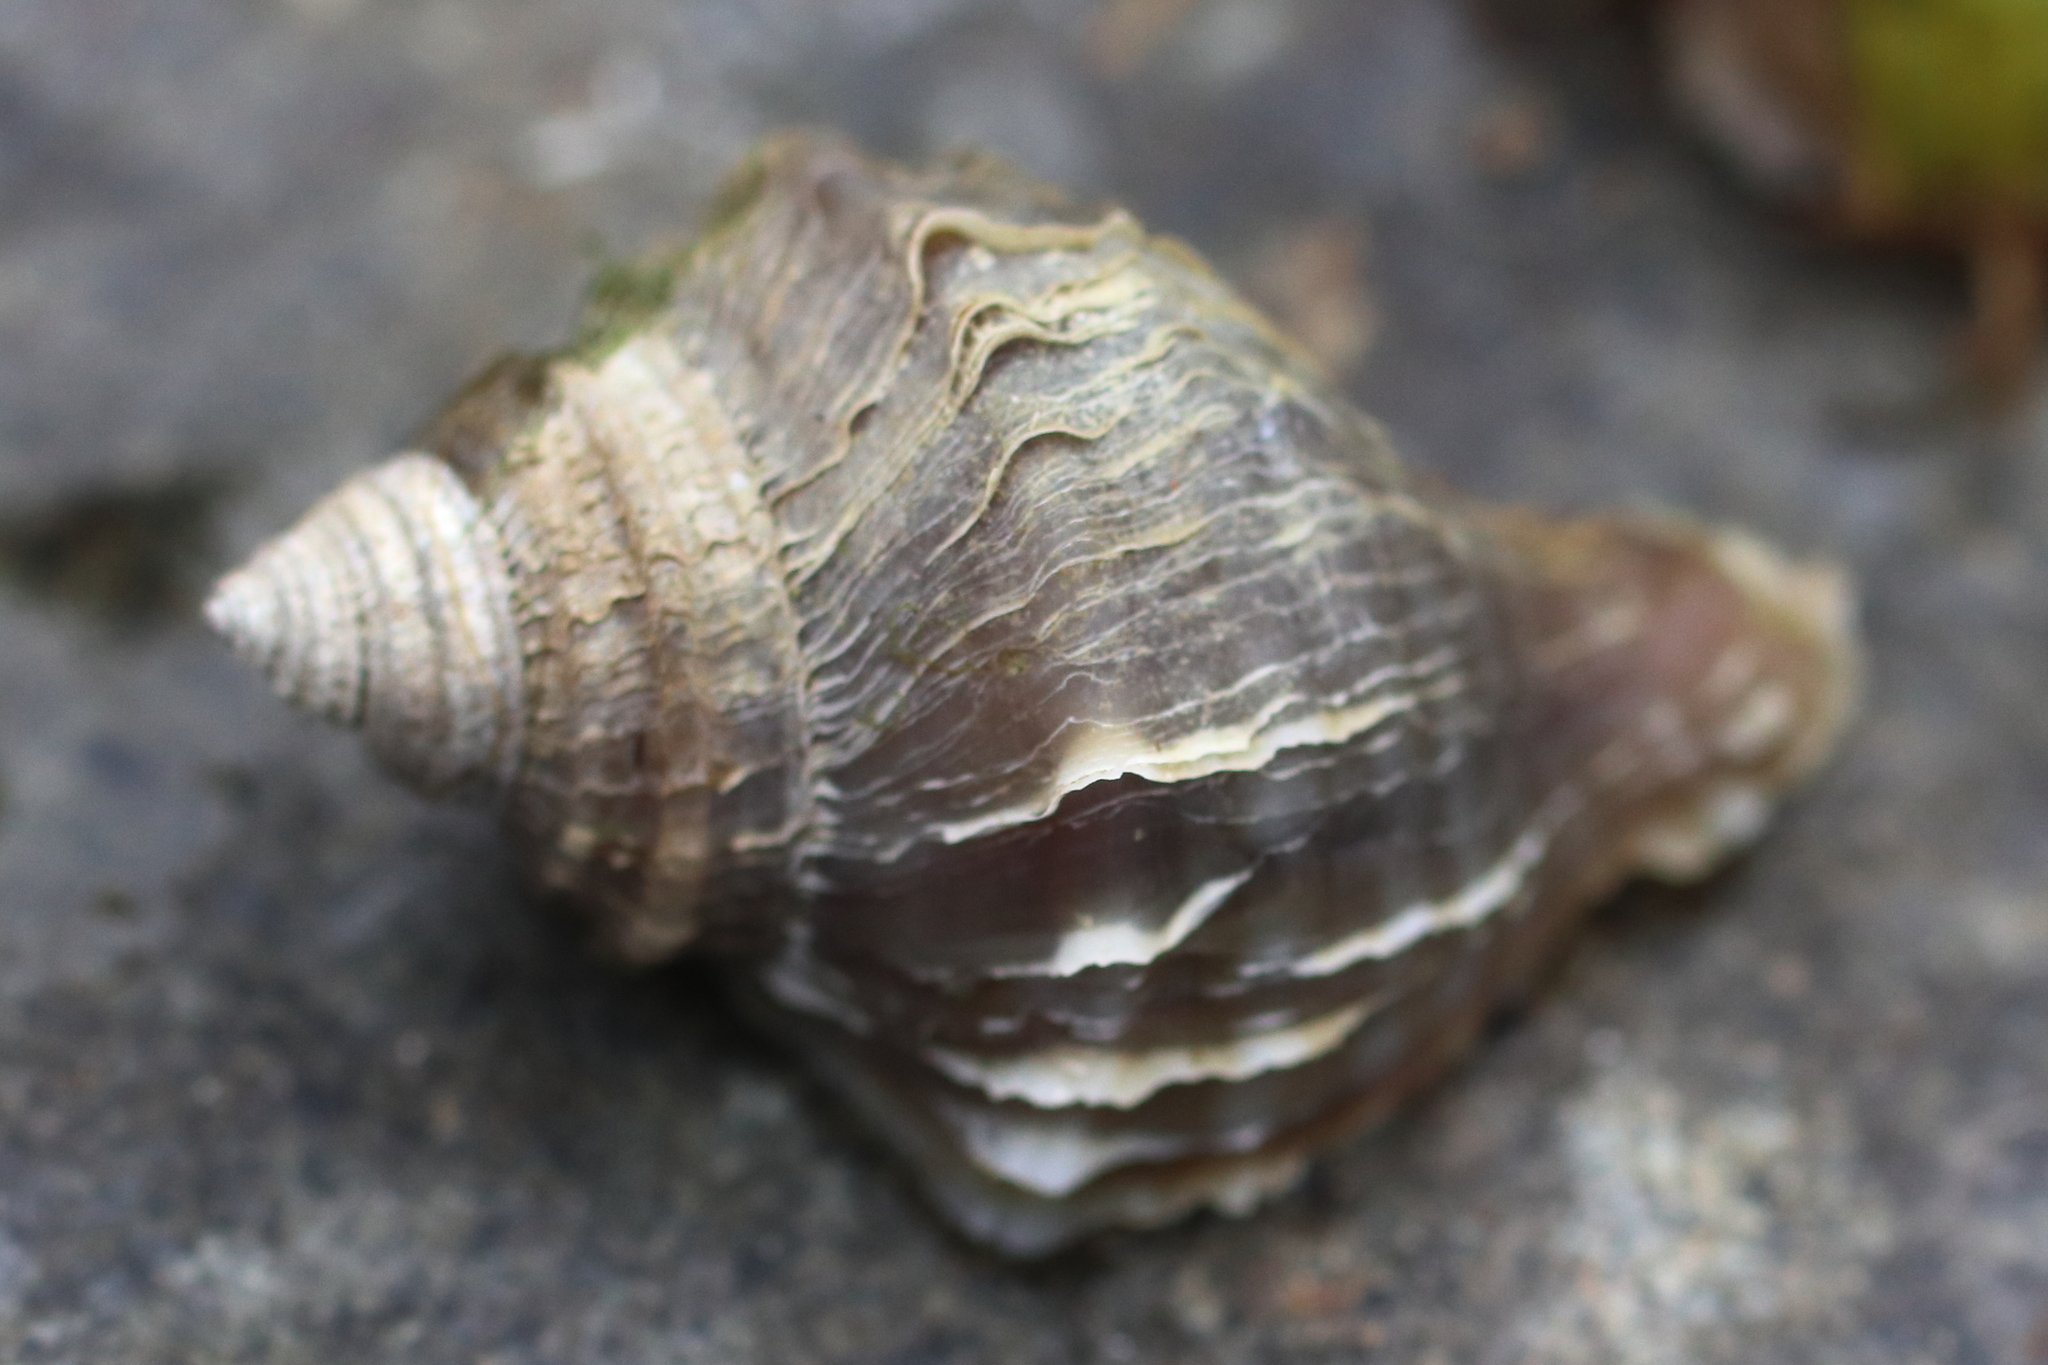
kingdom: Animalia
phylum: Mollusca
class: Gastropoda
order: Neogastropoda
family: Muricidae
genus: Nucella
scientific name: Nucella lamellosa
